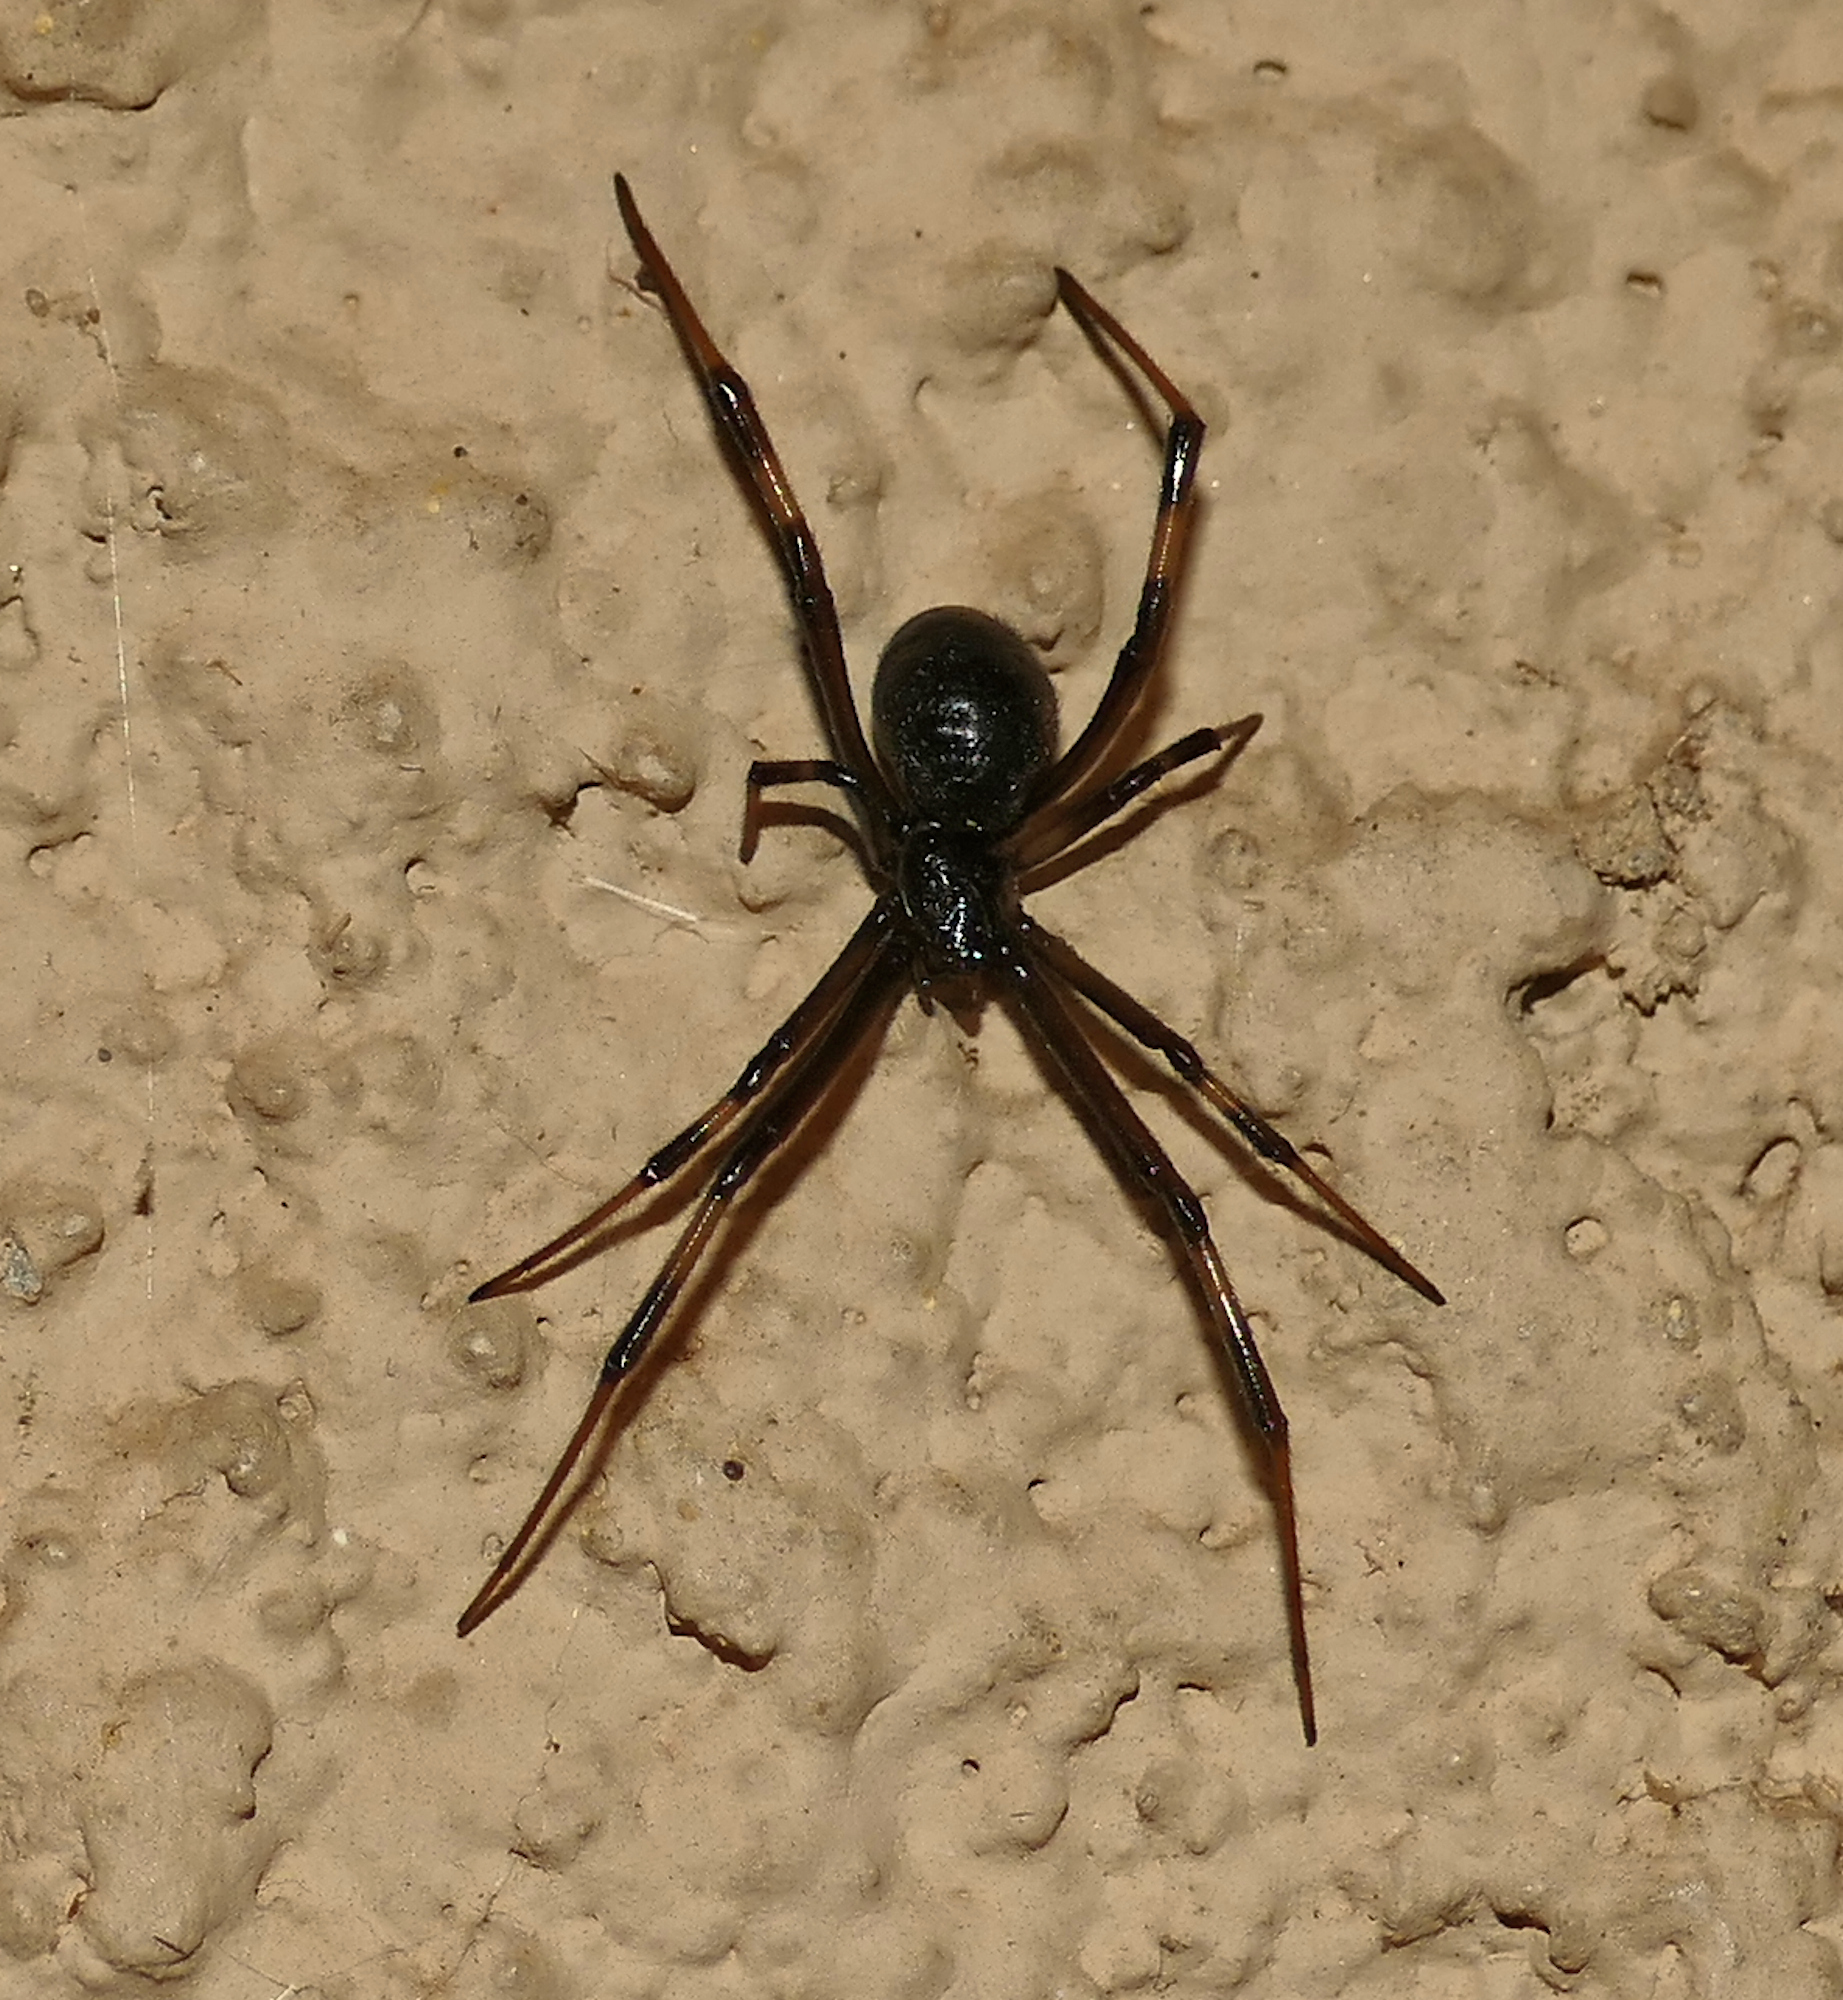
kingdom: Animalia
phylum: Arthropoda
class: Arachnida
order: Araneae
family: Theridiidae
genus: Latrodectus
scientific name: Latrodectus geometricus
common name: Brown widow spider
